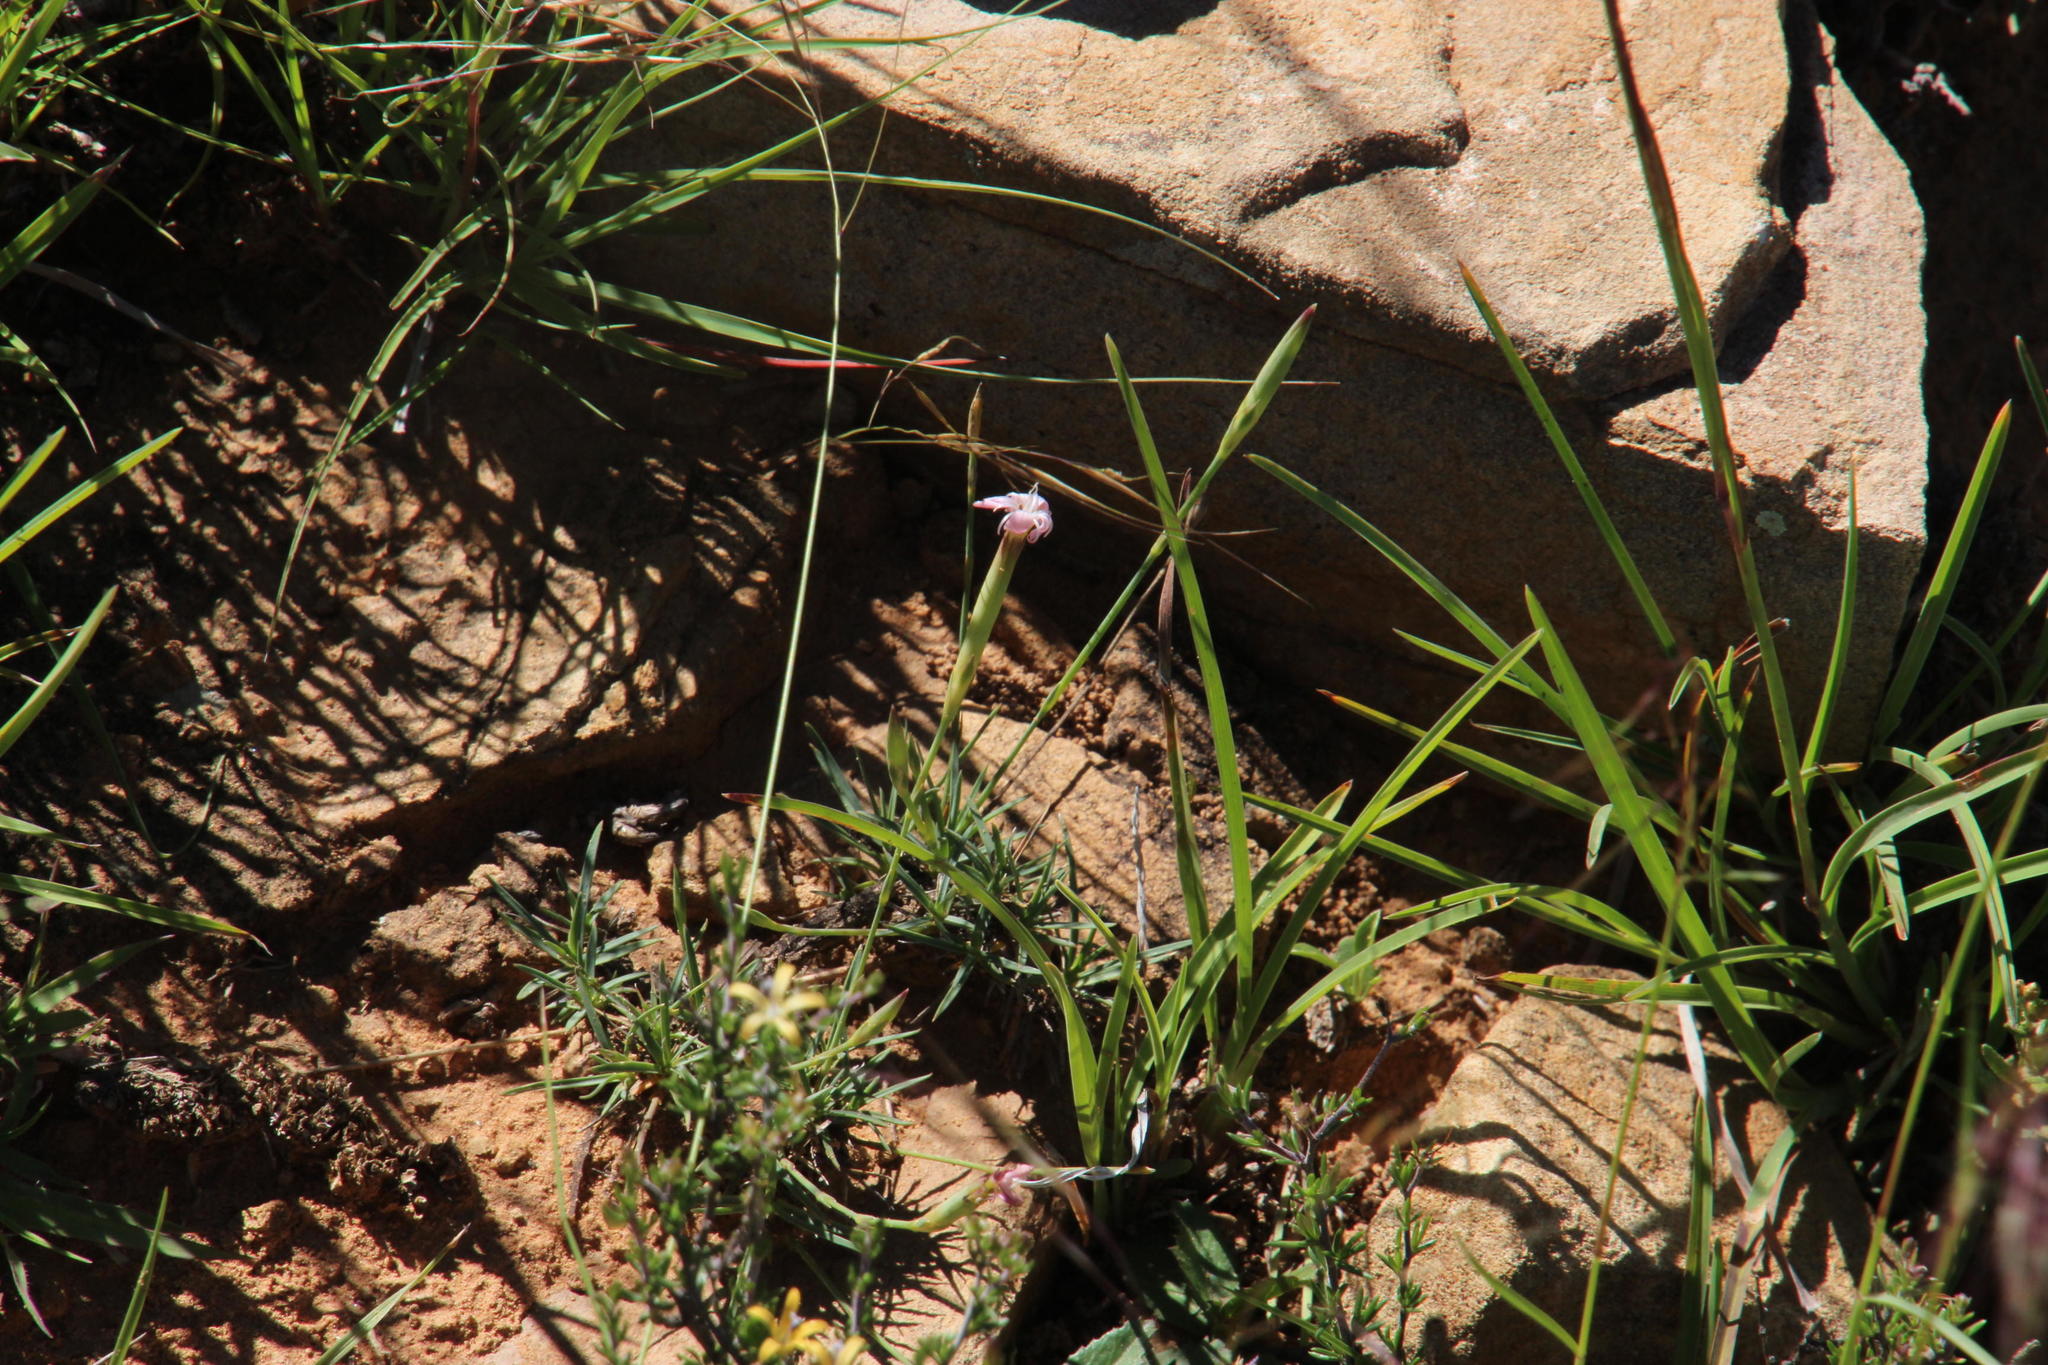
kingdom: Plantae
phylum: Tracheophyta
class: Magnoliopsida
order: Caryophyllales
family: Caryophyllaceae
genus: Dianthus
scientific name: Dianthus micropetalus
